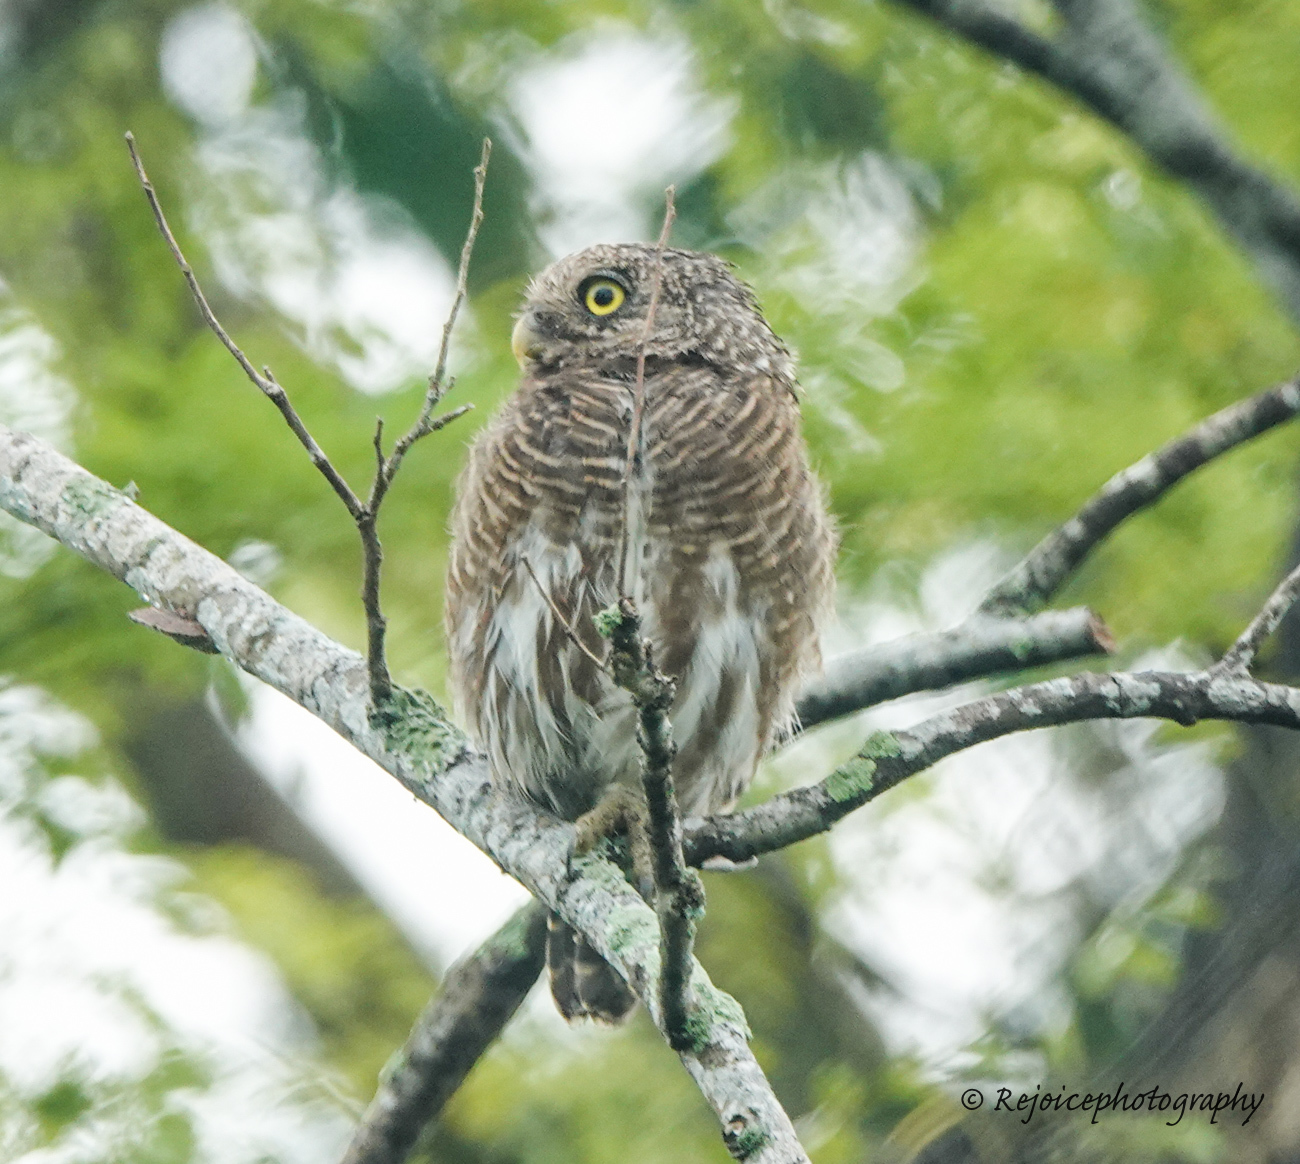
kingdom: Animalia
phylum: Chordata
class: Aves
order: Strigiformes
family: Strigidae
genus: Glaucidium
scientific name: Glaucidium cuculoides
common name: Asian barred owlet
